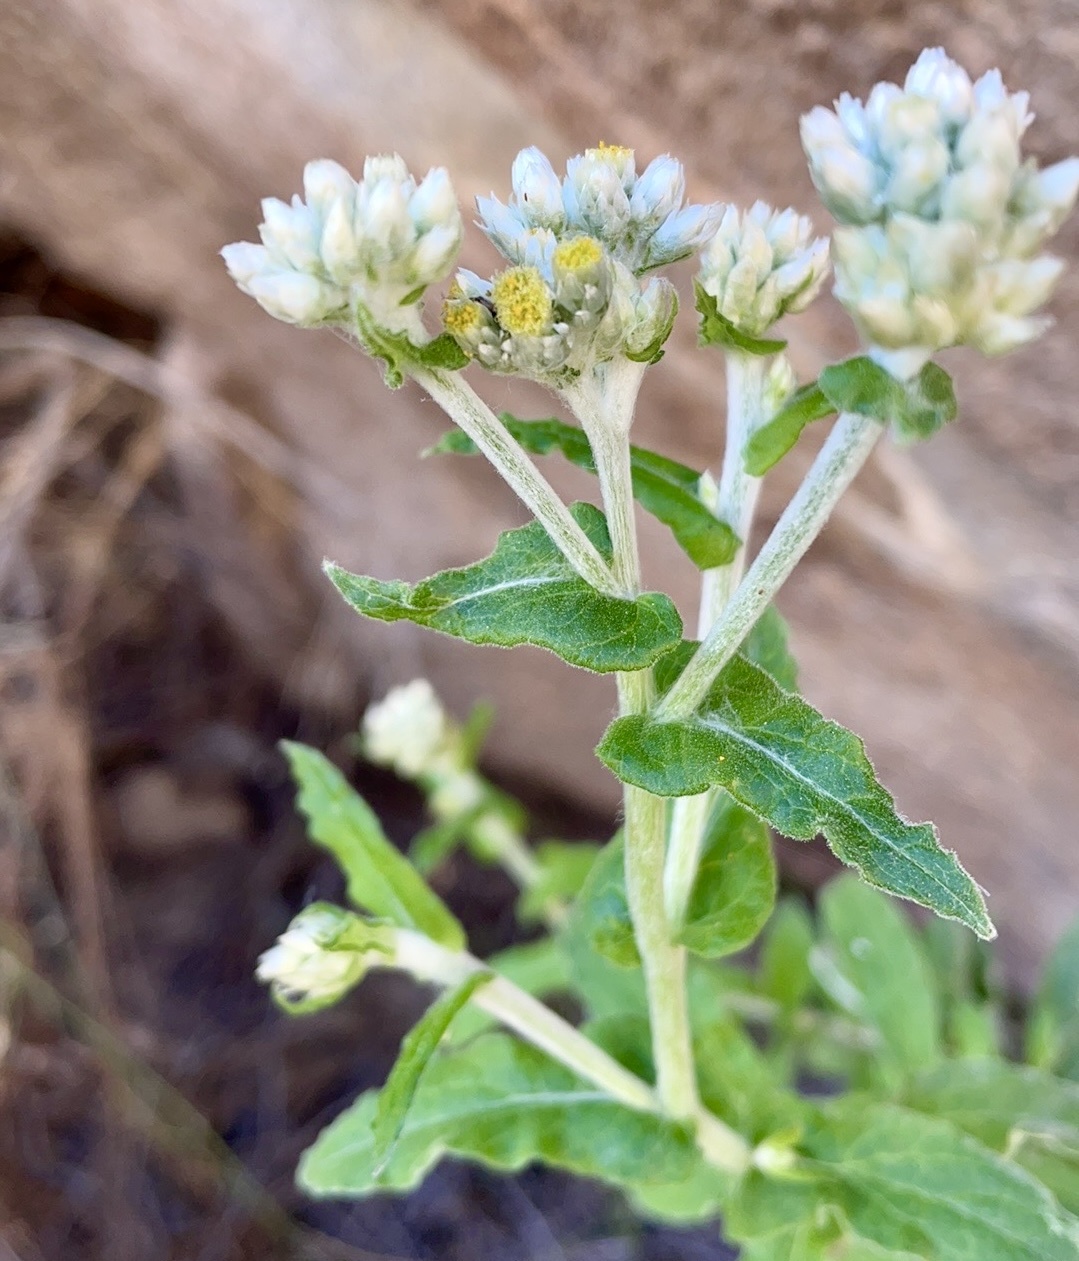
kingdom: Plantae
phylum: Tracheophyta
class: Magnoliopsida
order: Asterales
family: Asteraceae
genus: Pseudognaphalium
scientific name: Pseudognaphalium biolettii
